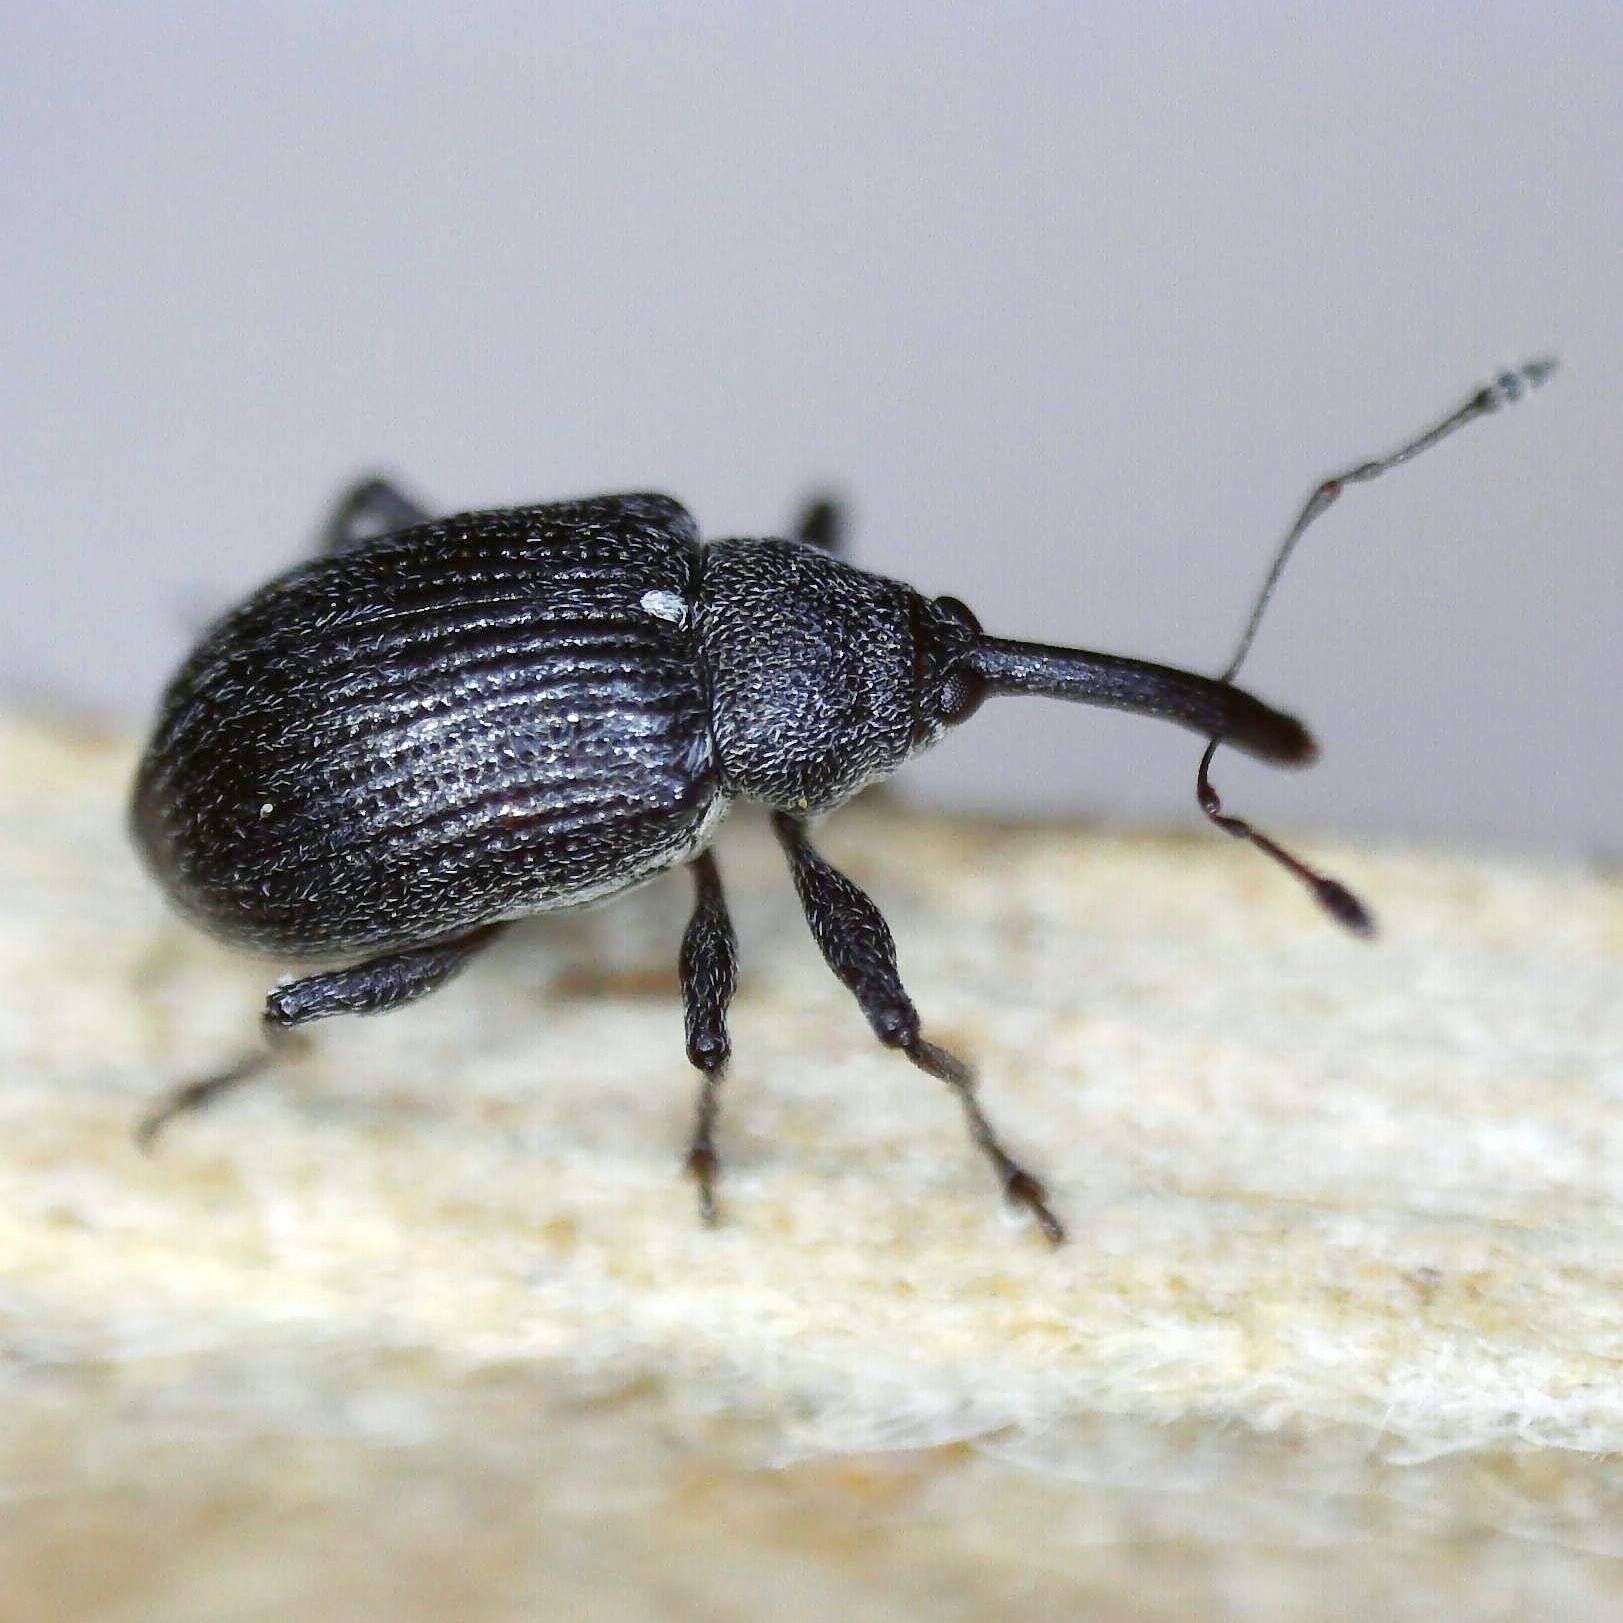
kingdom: Animalia
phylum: Arthropoda
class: Insecta
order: Coleoptera
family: Curculionidae
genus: Anthonomus
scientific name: Anthonomus rubi
